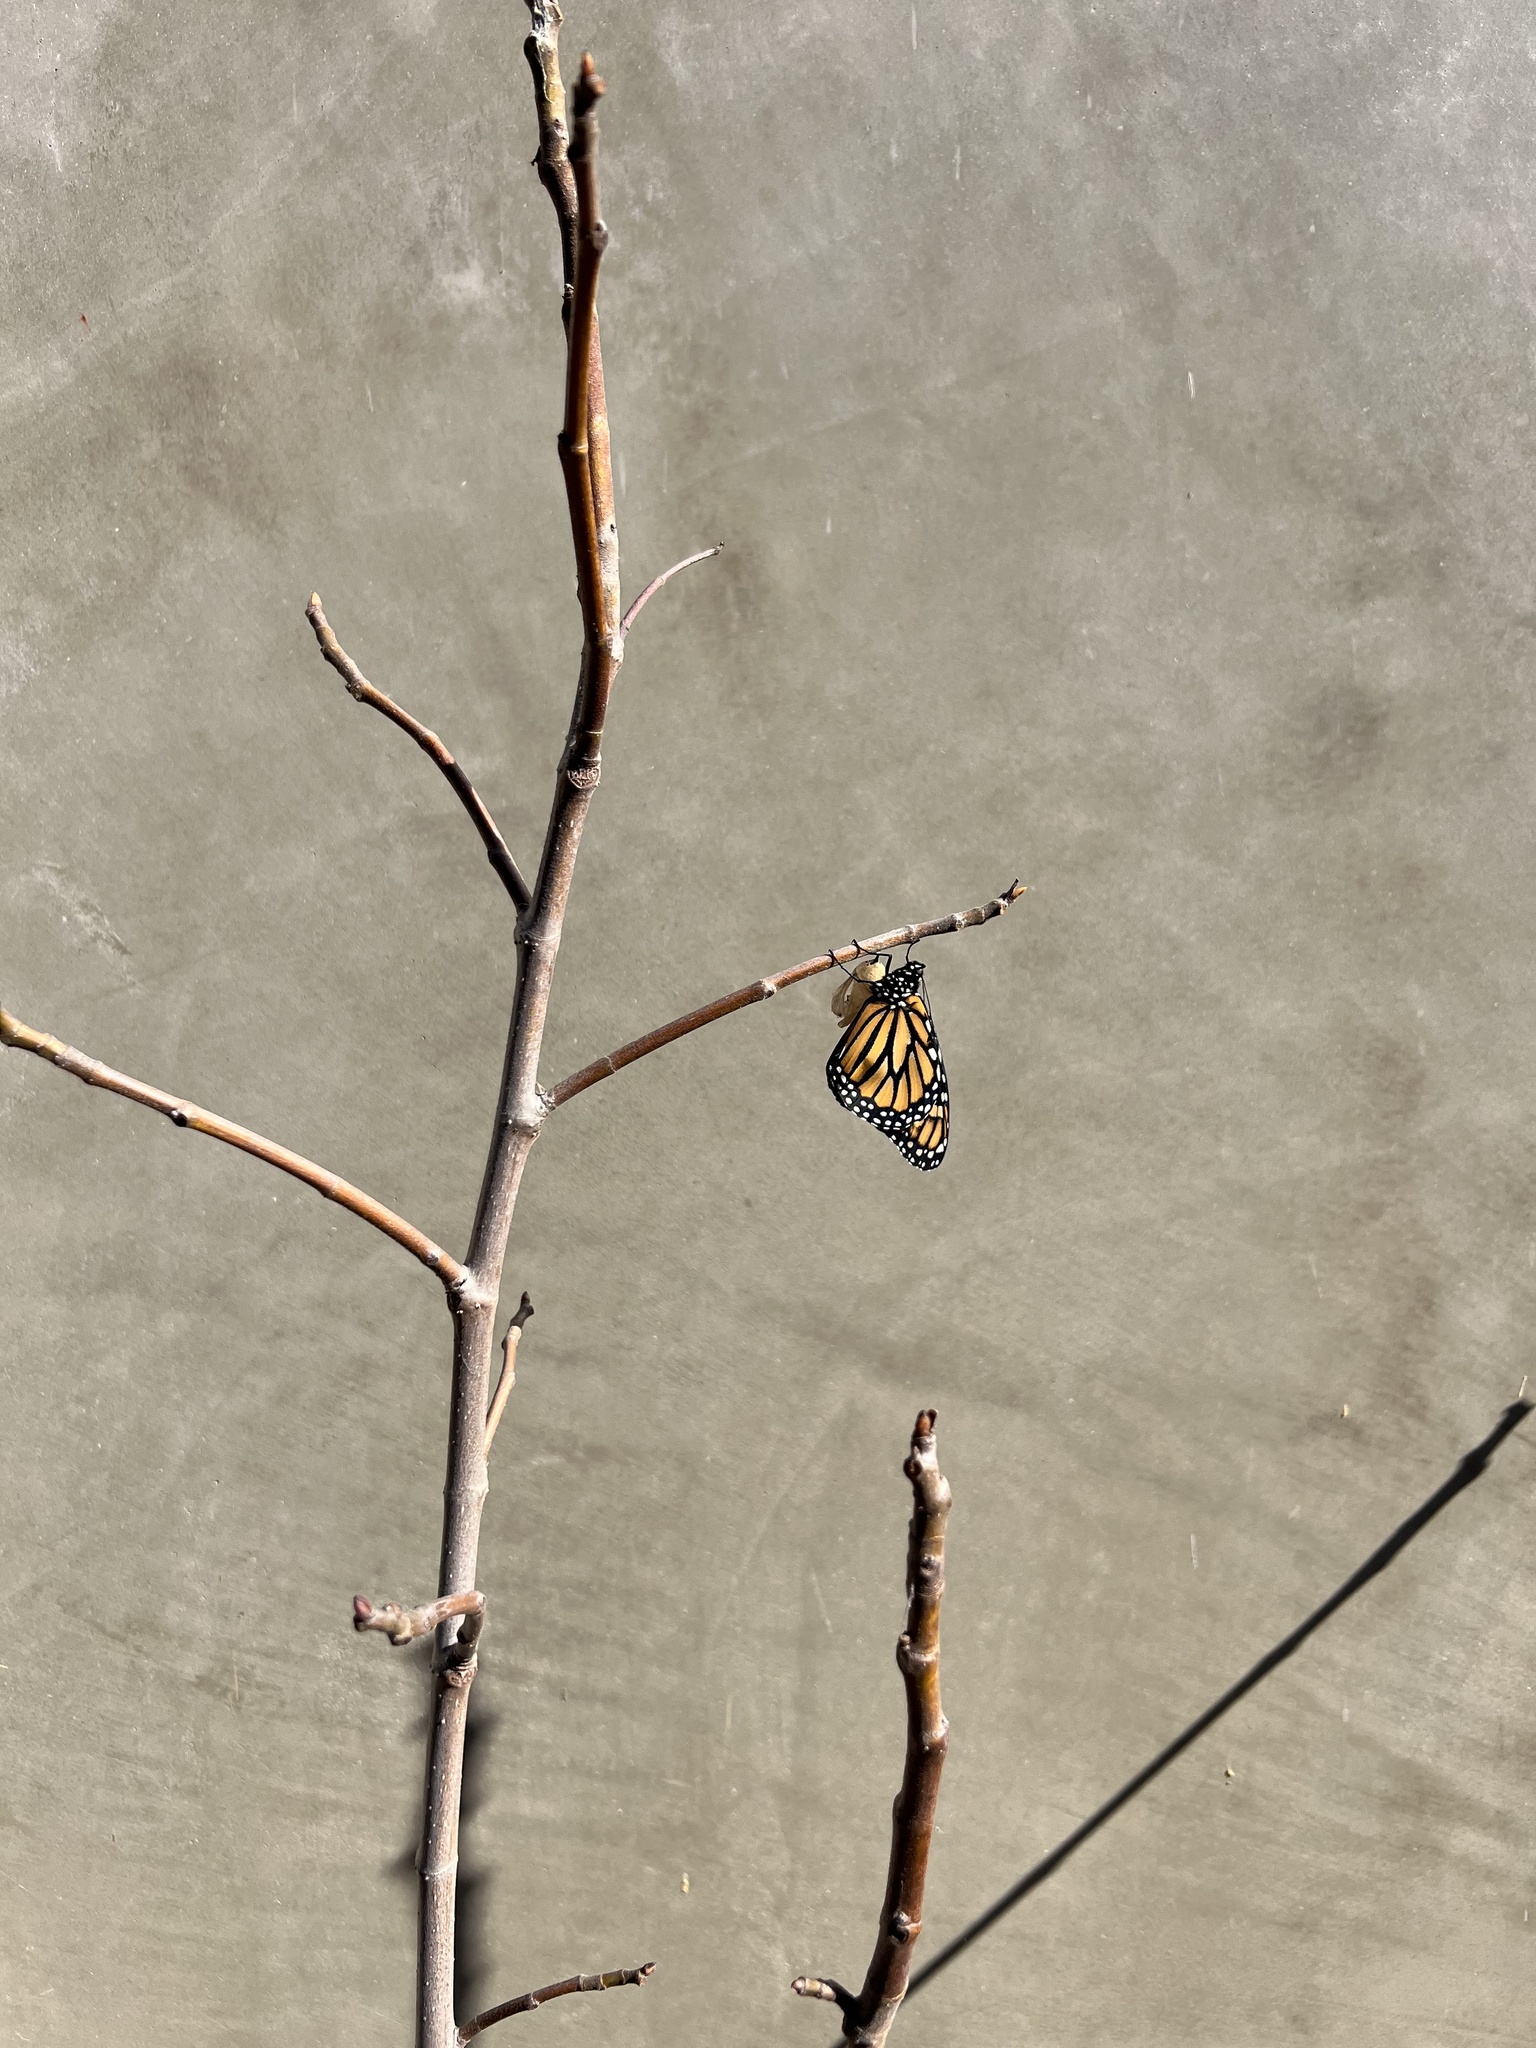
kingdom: Animalia
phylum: Arthropoda
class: Insecta
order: Lepidoptera
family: Nymphalidae
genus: Danaus
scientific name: Danaus plexippus
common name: Monarch
